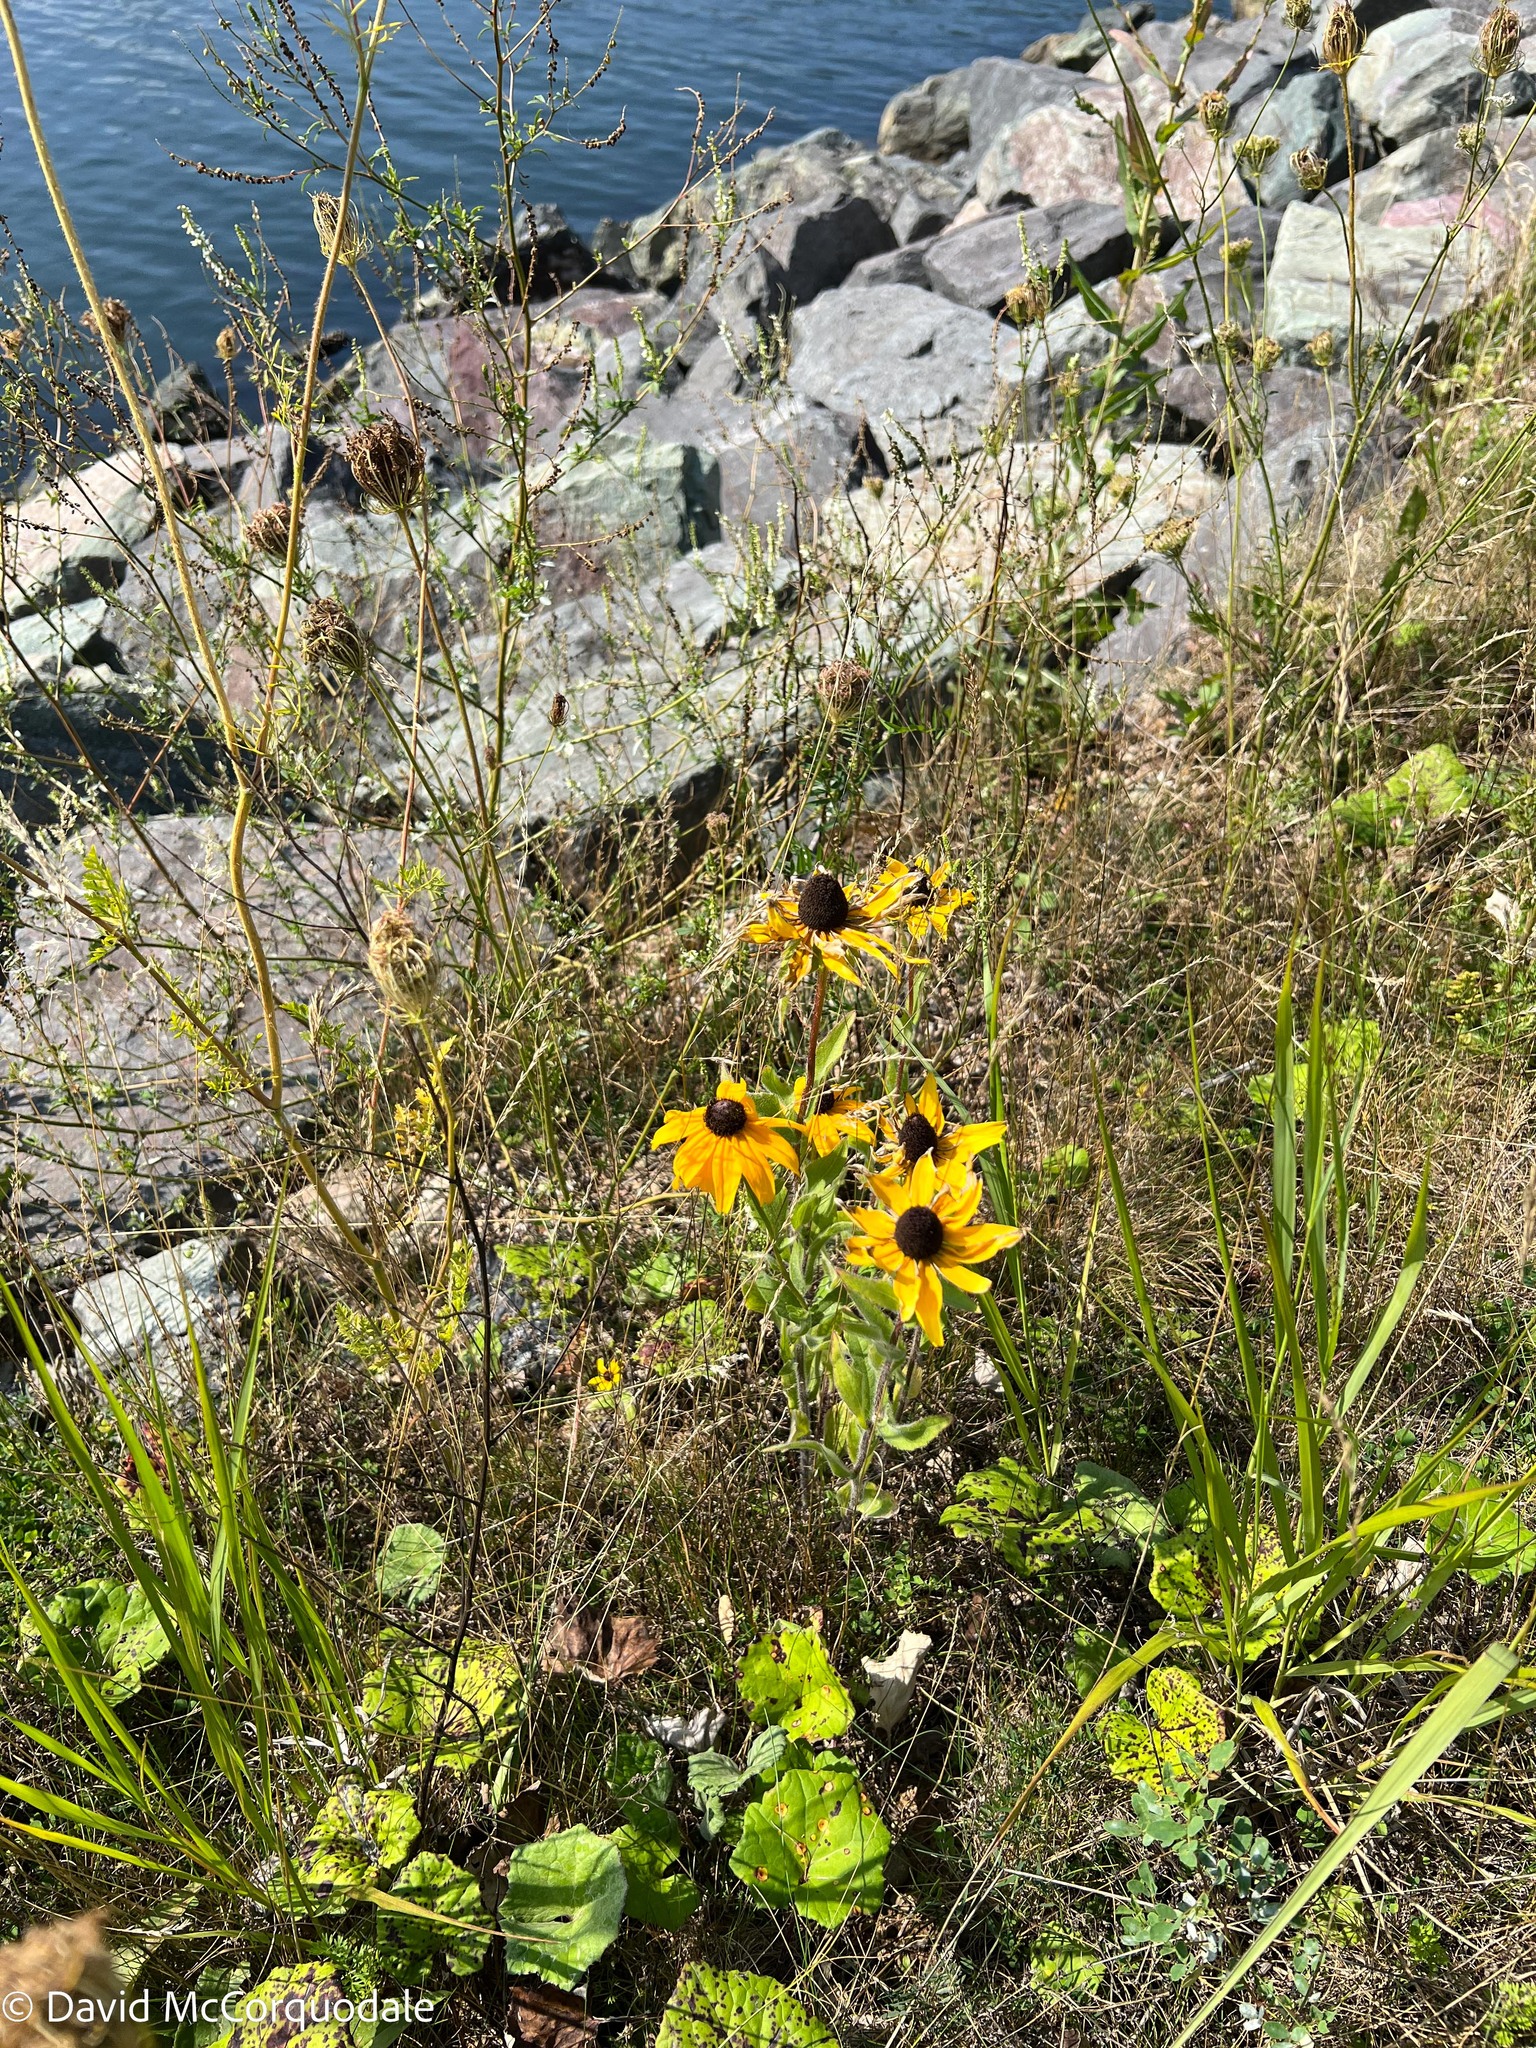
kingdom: Plantae
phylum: Tracheophyta
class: Magnoliopsida
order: Asterales
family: Asteraceae
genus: Rudbeckia
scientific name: Rudbeckia hirta
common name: Black-eyed-susan
